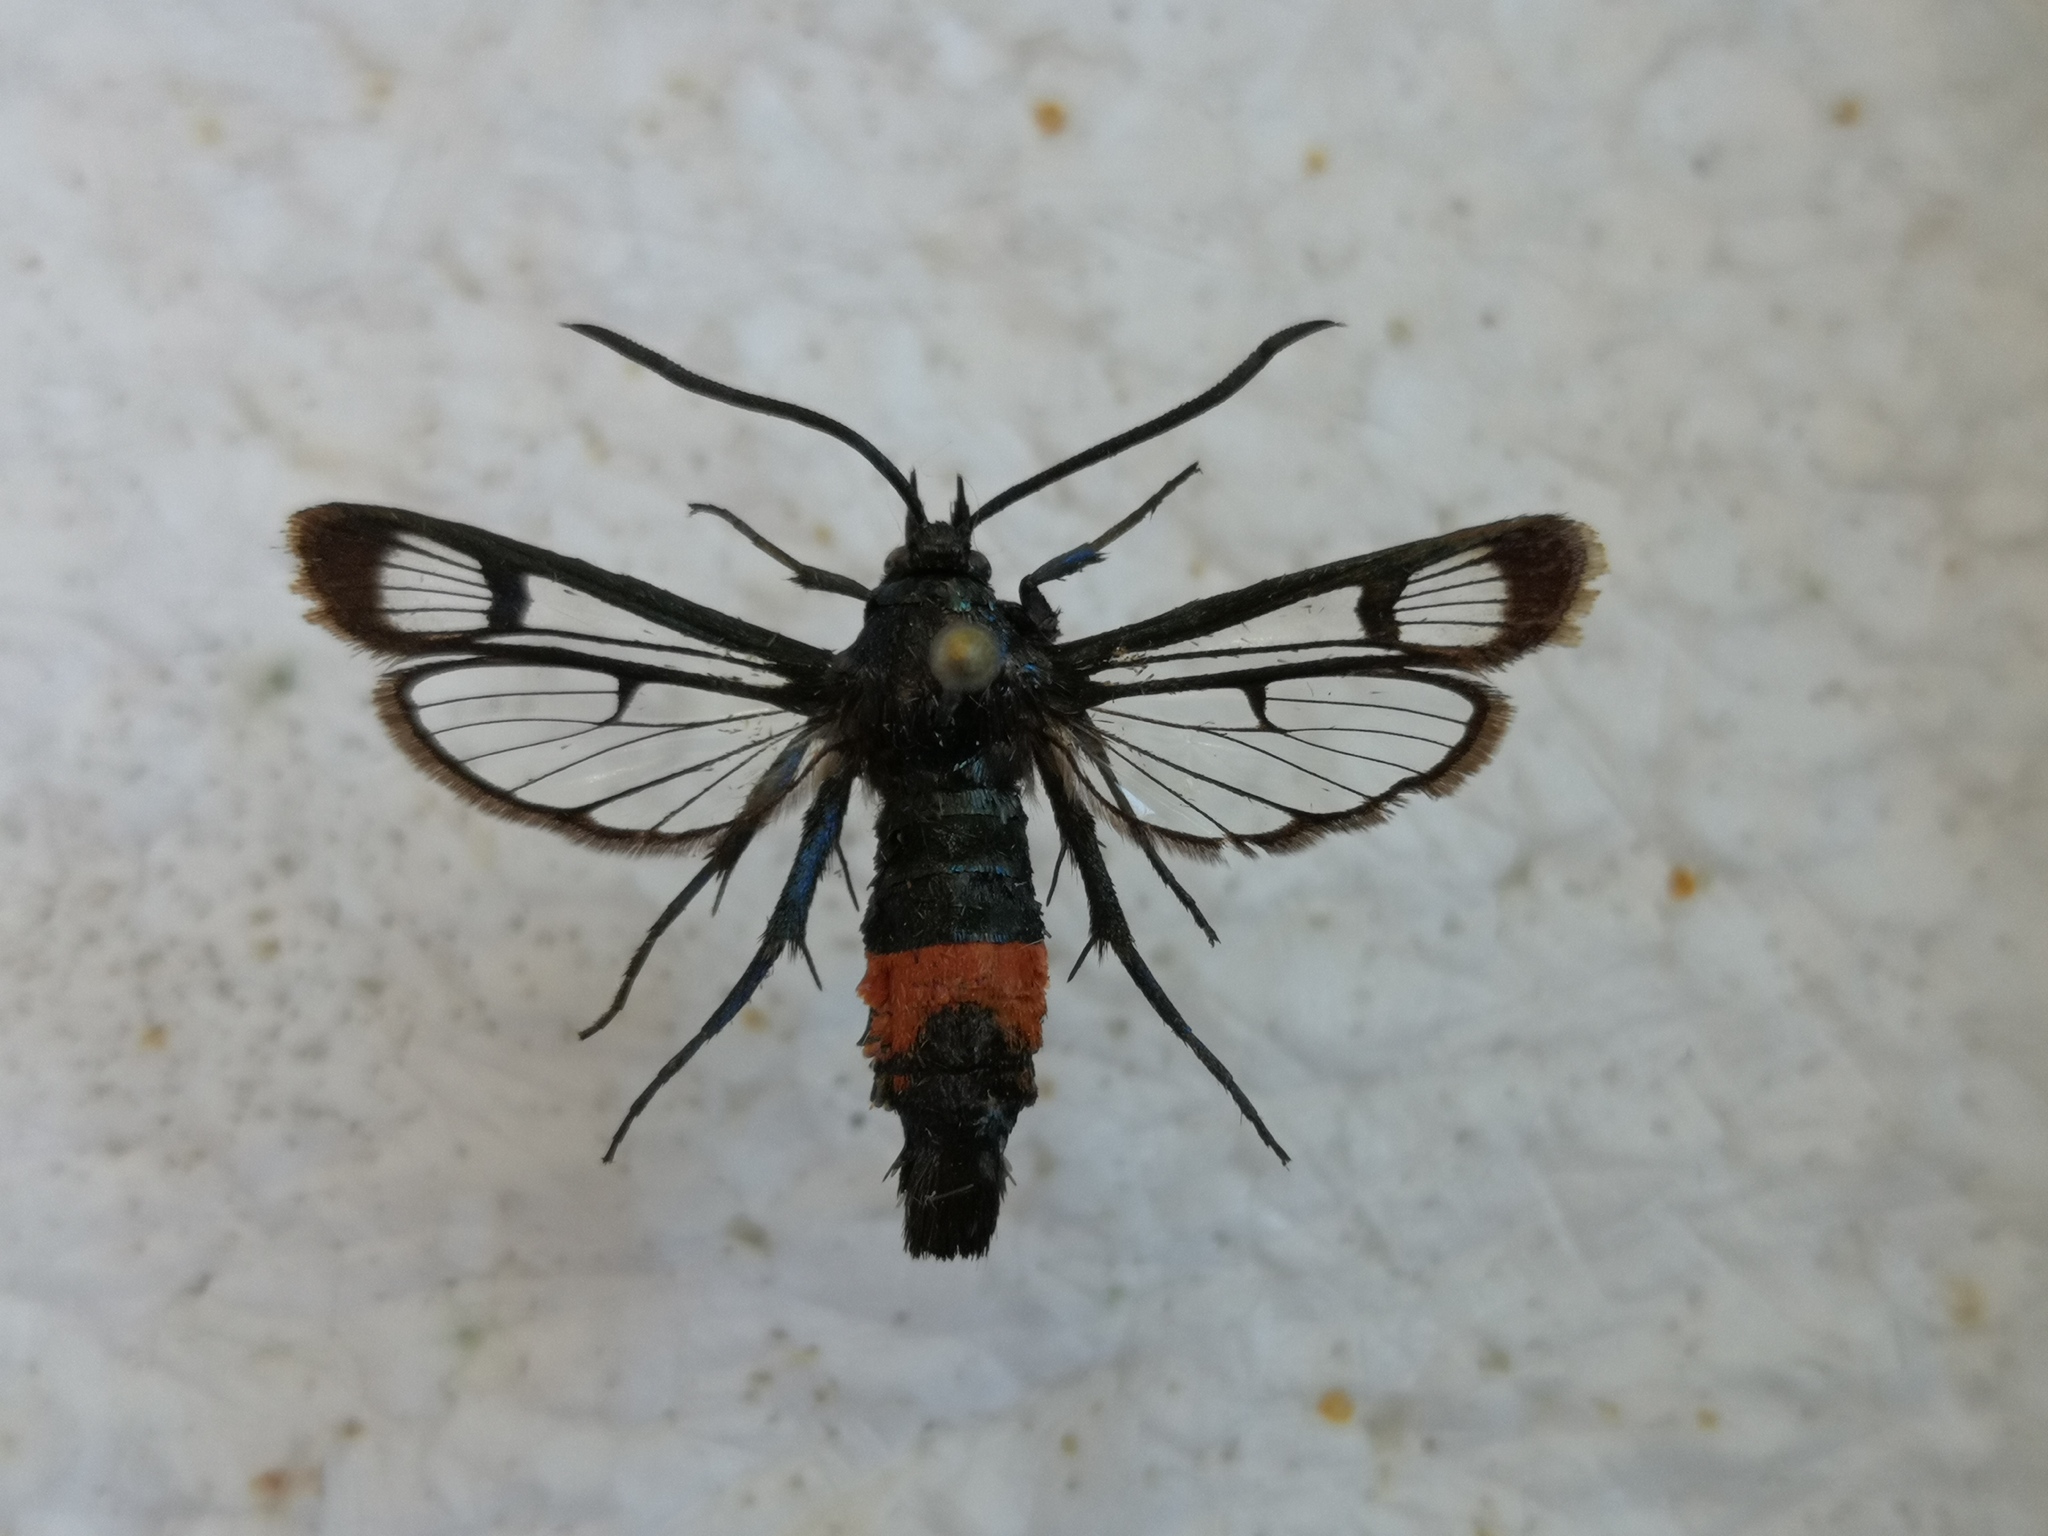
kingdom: Animalia
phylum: Arthropoda
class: Insecta
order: Lepidoptera
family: Sesiidae
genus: Synanthedon
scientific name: Synanthedon stomoxiformis
